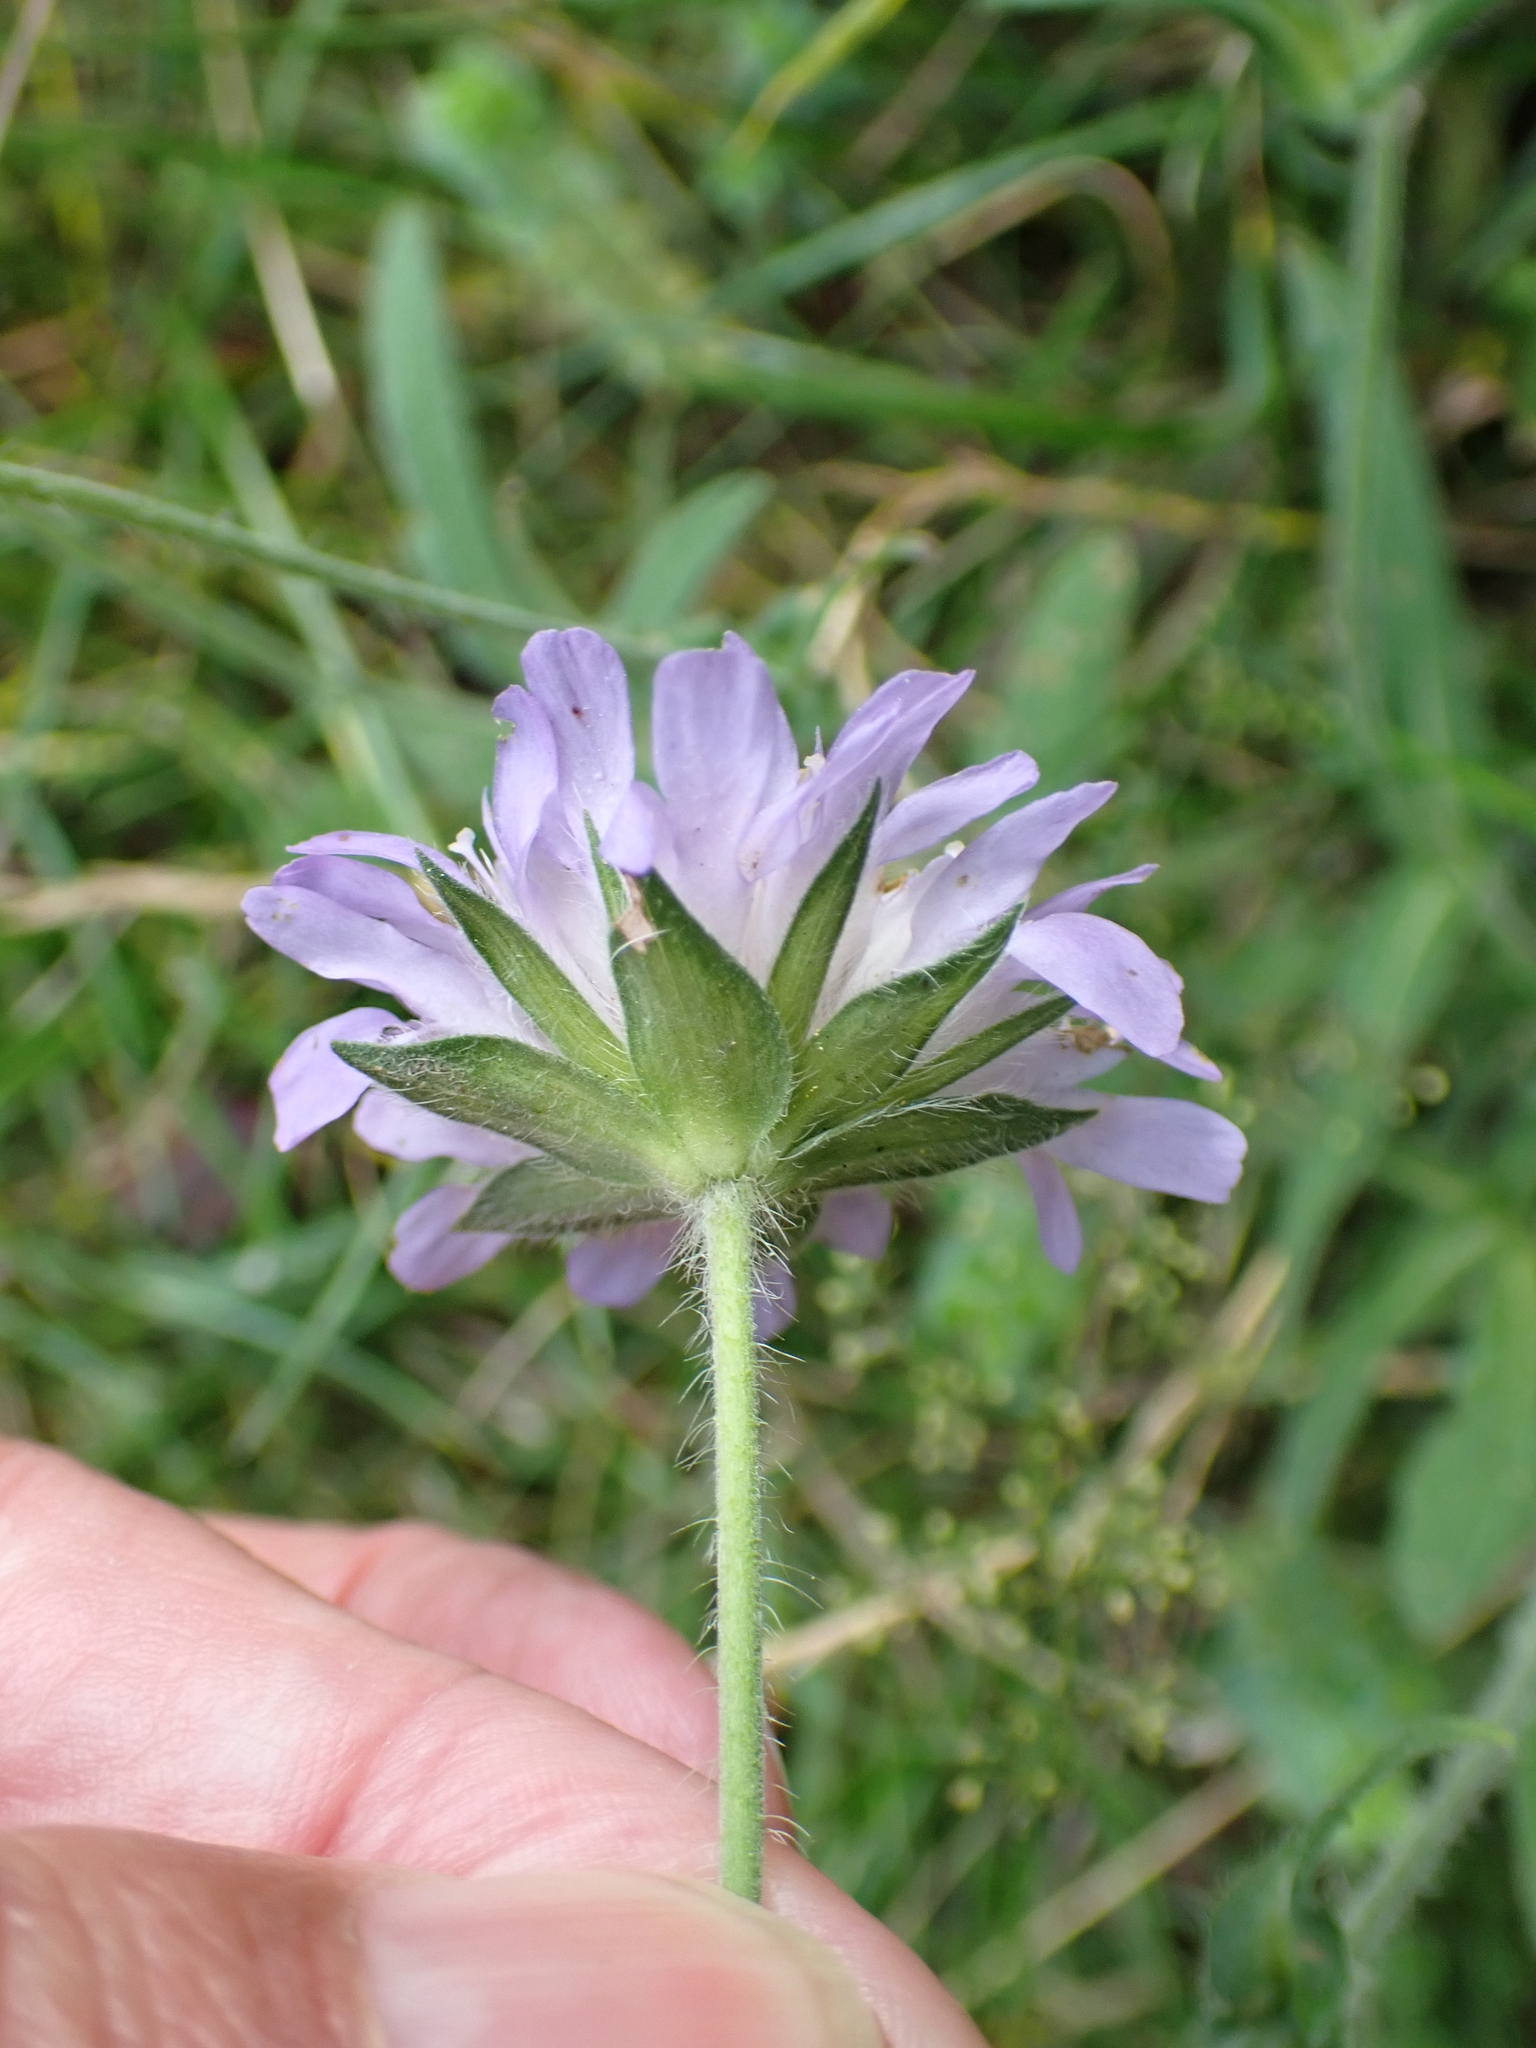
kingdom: Plantae
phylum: Tracheophyta
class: Magnoliopsida
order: Dipsacales
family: Caprifoliaceae
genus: Knautia
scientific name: Knautia arvensis
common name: Field scabiosa
